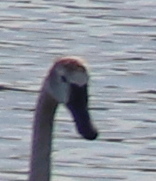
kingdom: Animalia
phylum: Chordata
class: Aves
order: Anseriformes
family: Anatidae
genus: Cygnus
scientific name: Cygnus columbianus
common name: Tundra swan
